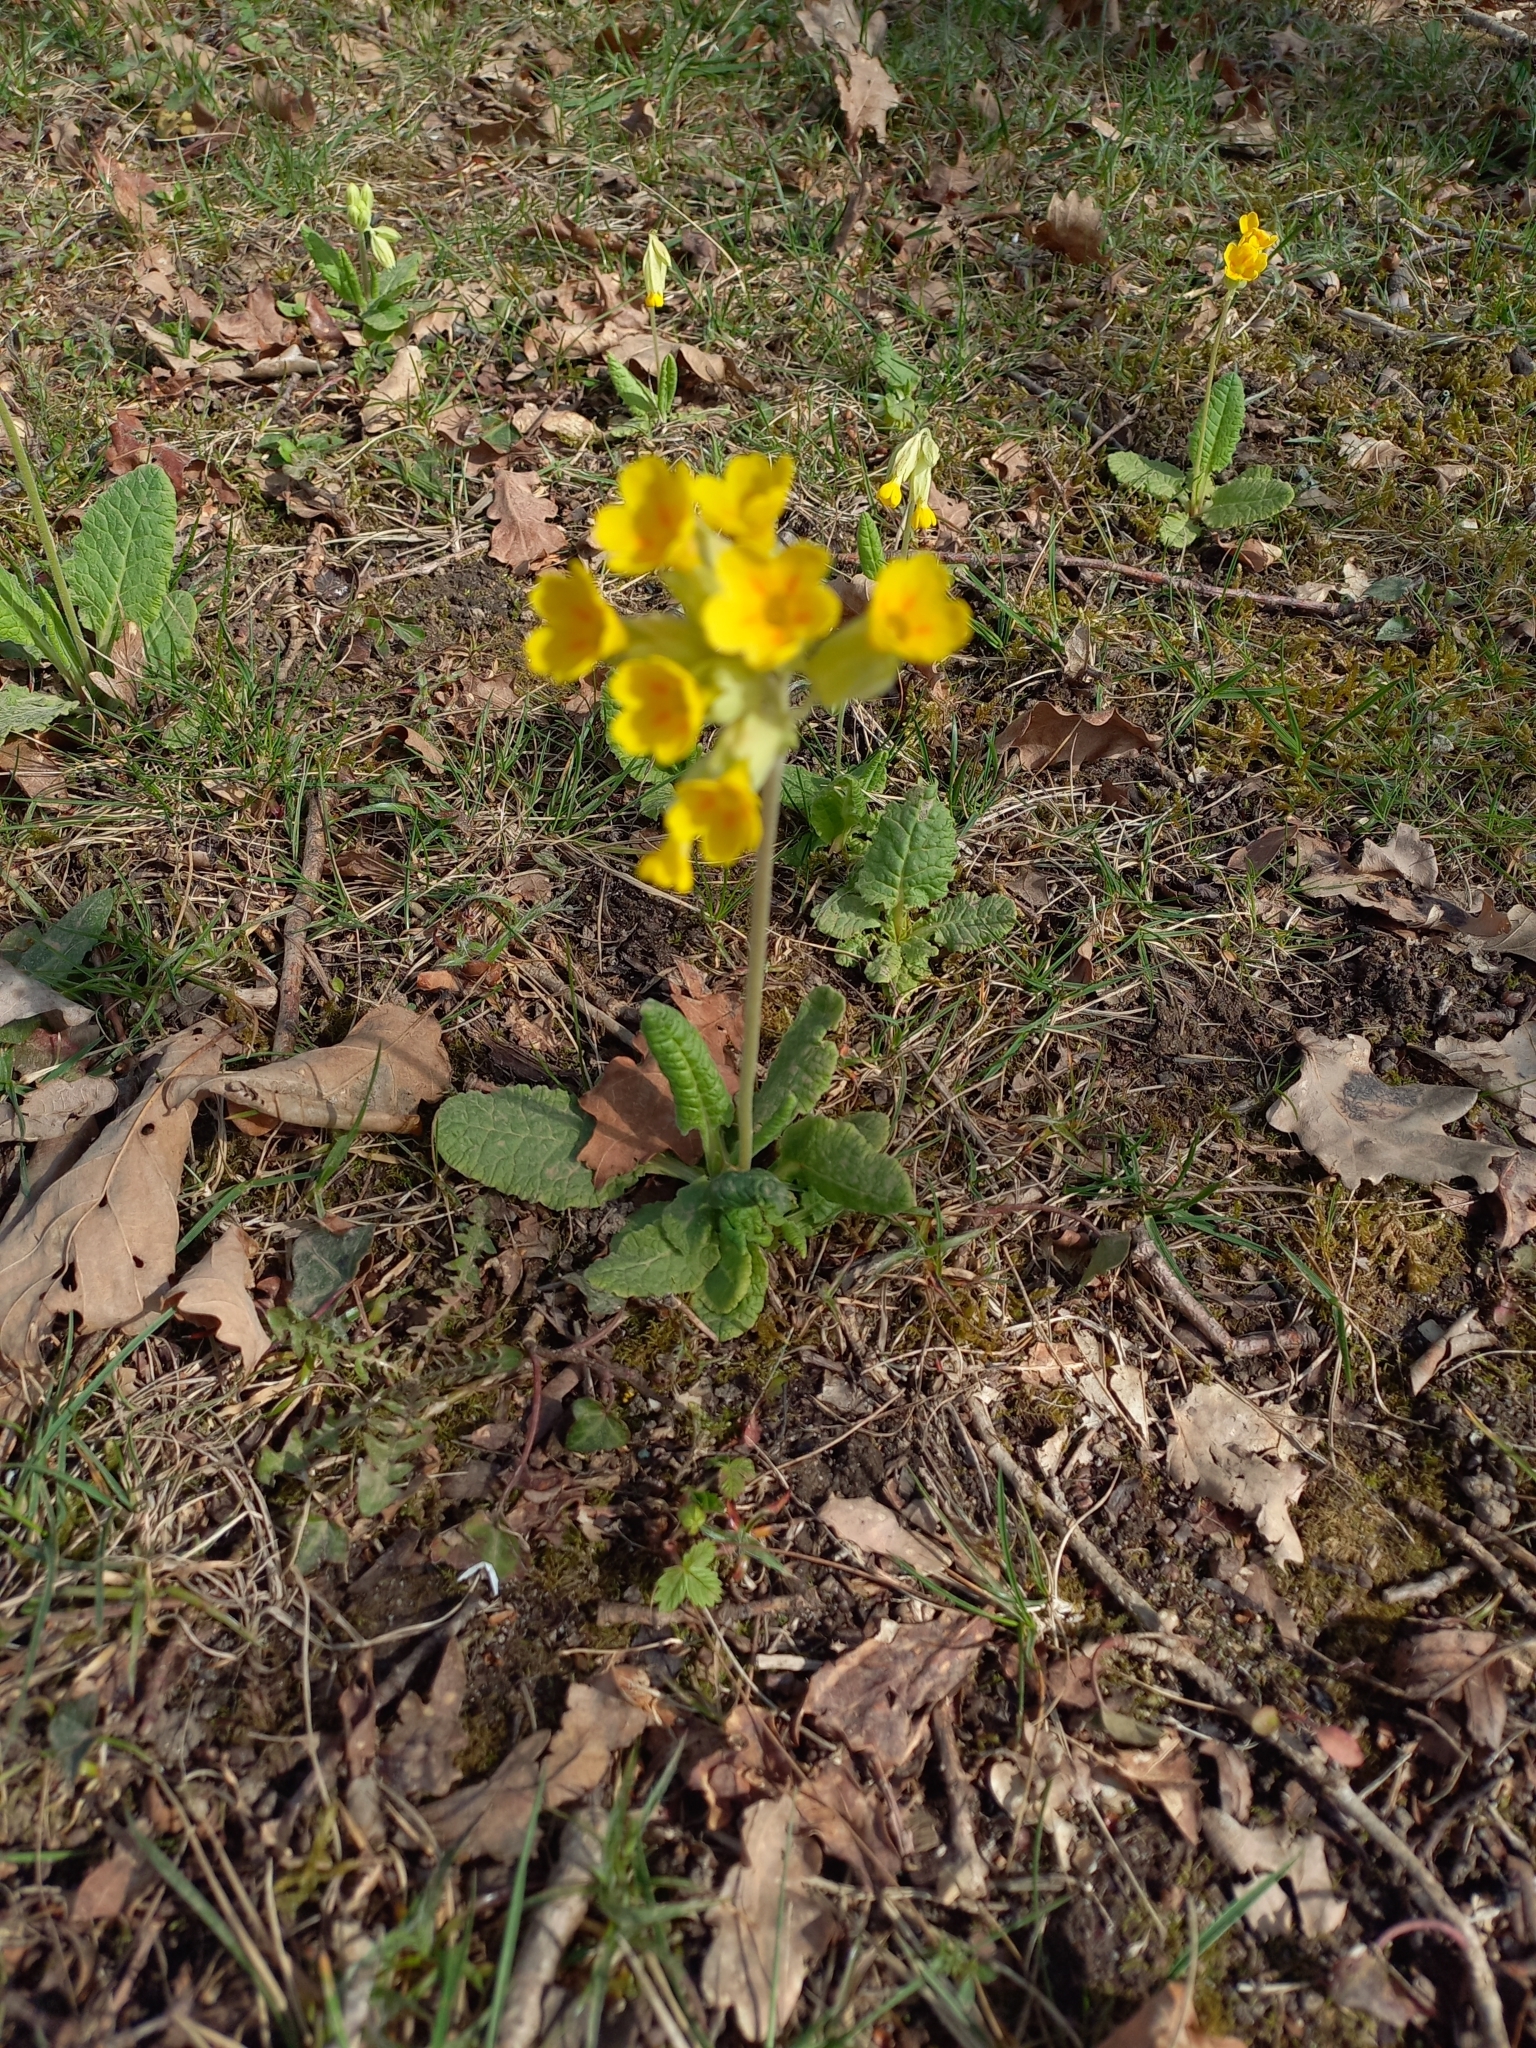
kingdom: Plantae
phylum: Tracheophyta
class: Magnoliopsida
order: Ericales
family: Primulaceae
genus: Primula
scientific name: Primula veris
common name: Cowslip
